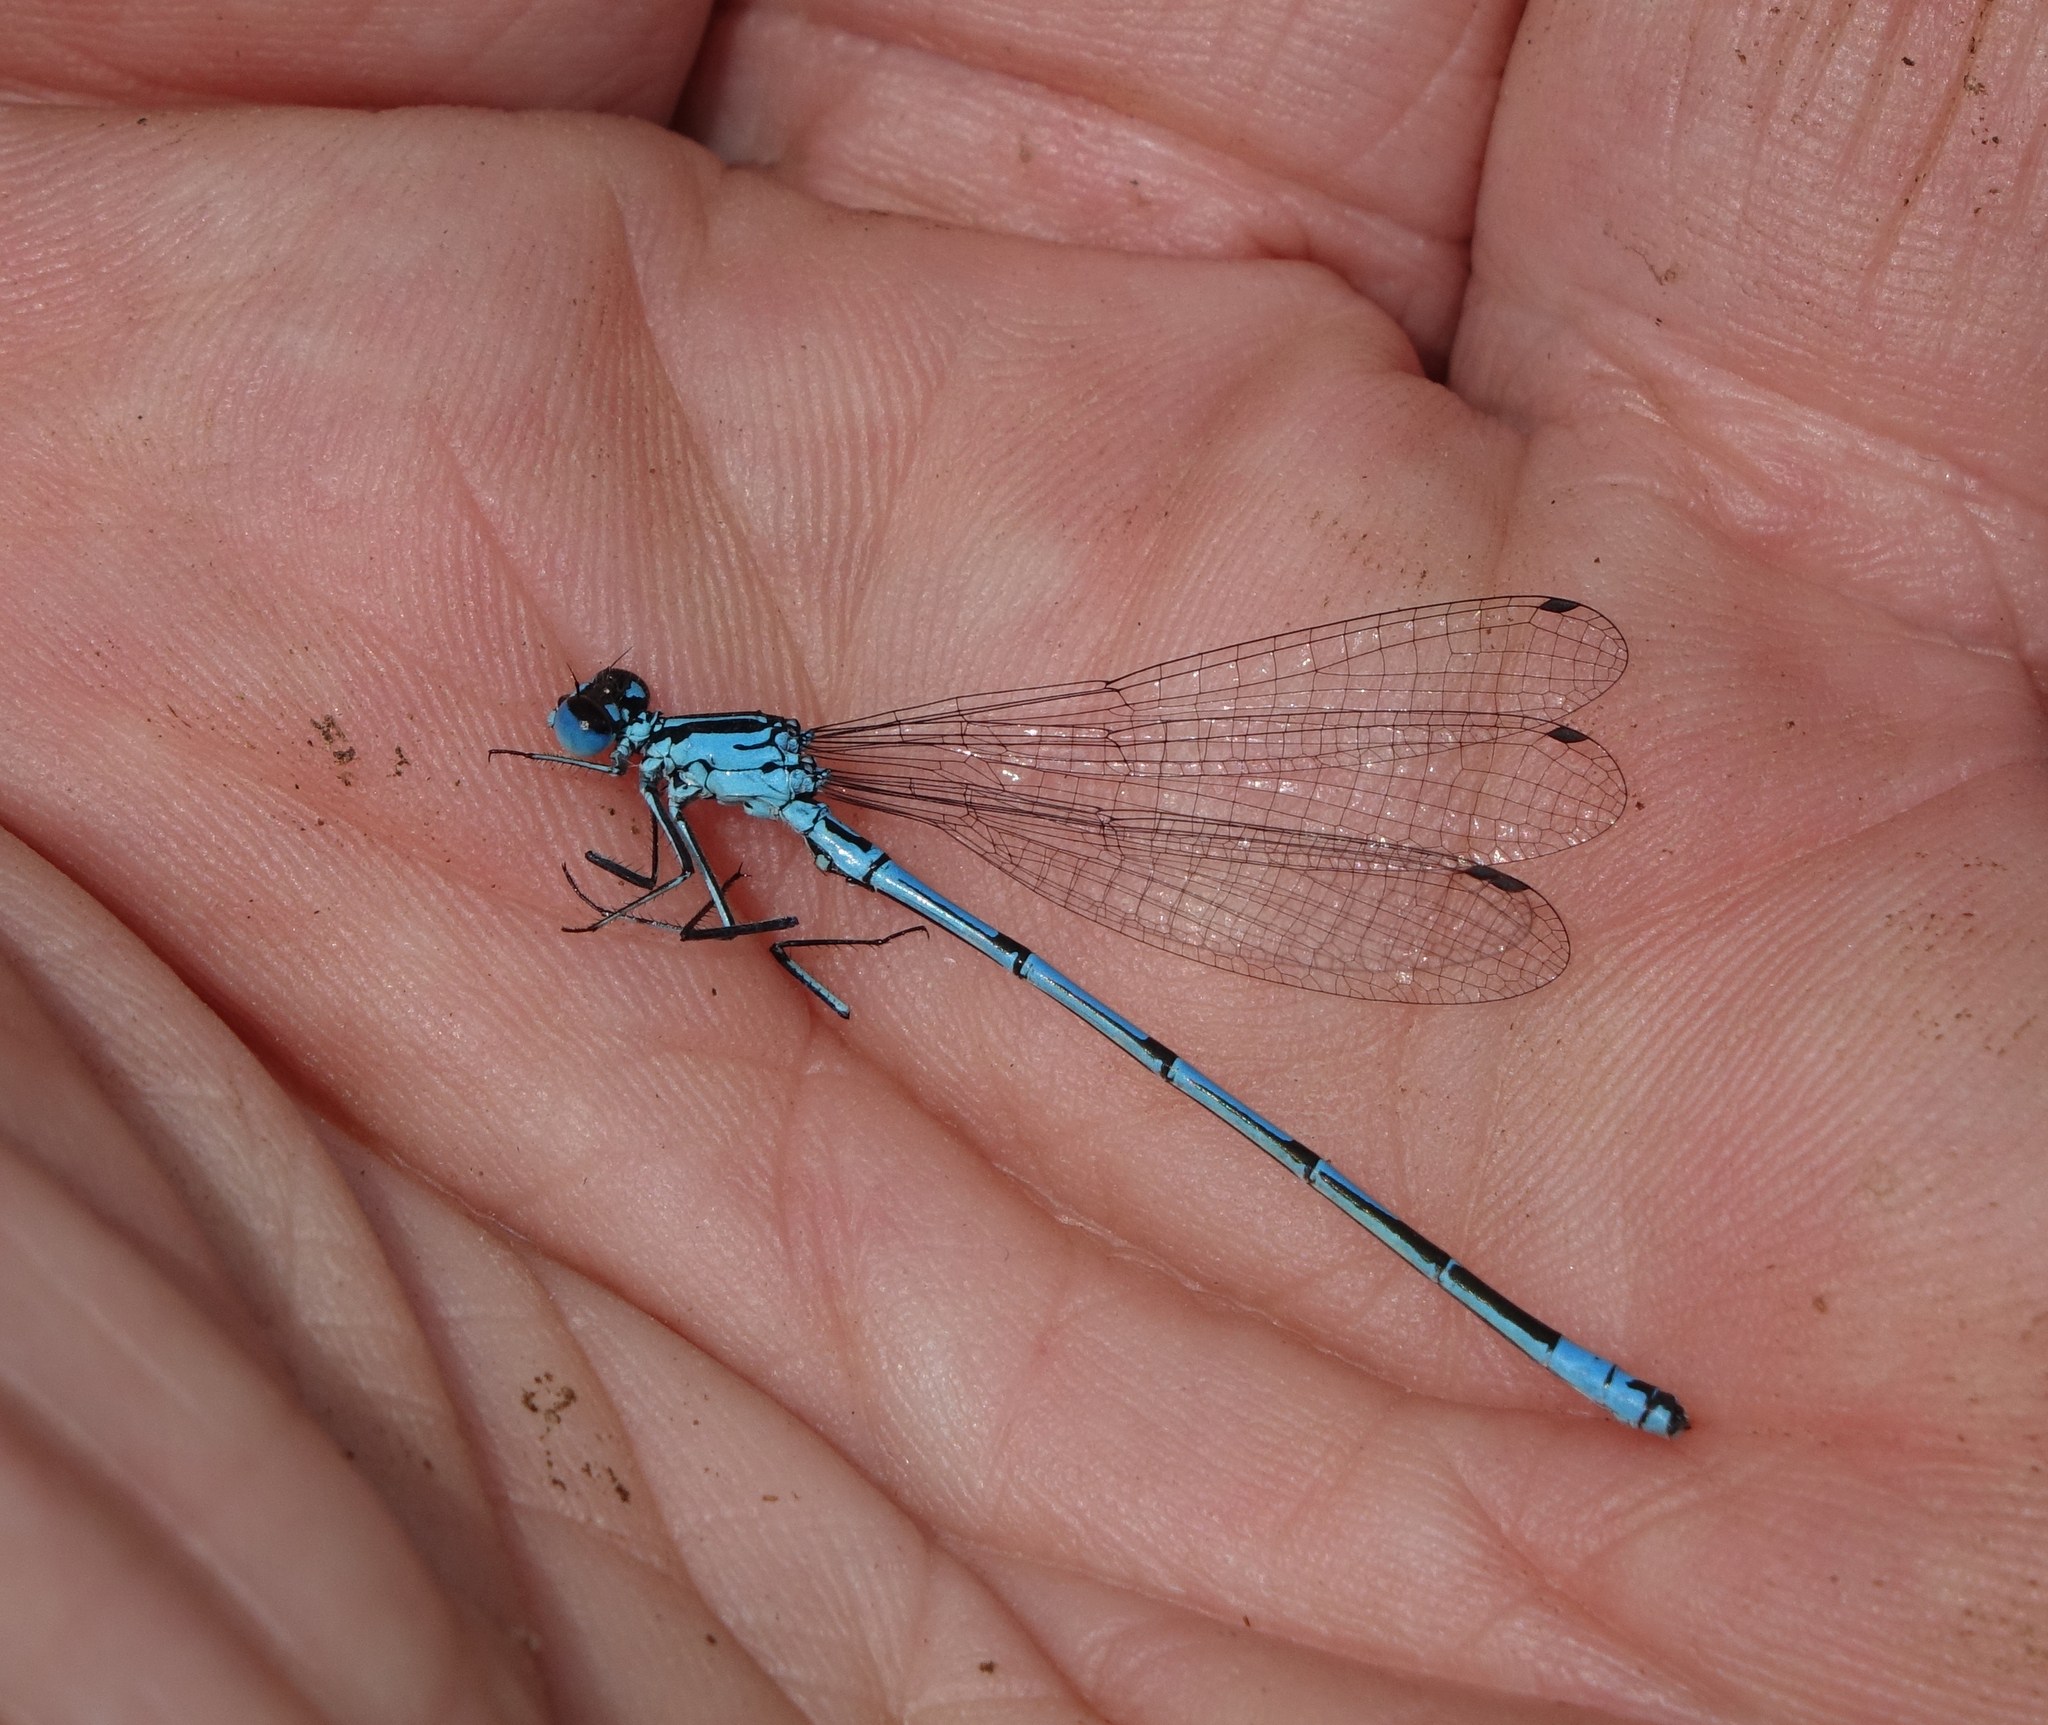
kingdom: Animalia
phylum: Arthropoda
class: Insecta
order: Odonata
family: Coenagrionidae
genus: Coenagrion
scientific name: Coenagrion puella
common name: Azure damselfly
